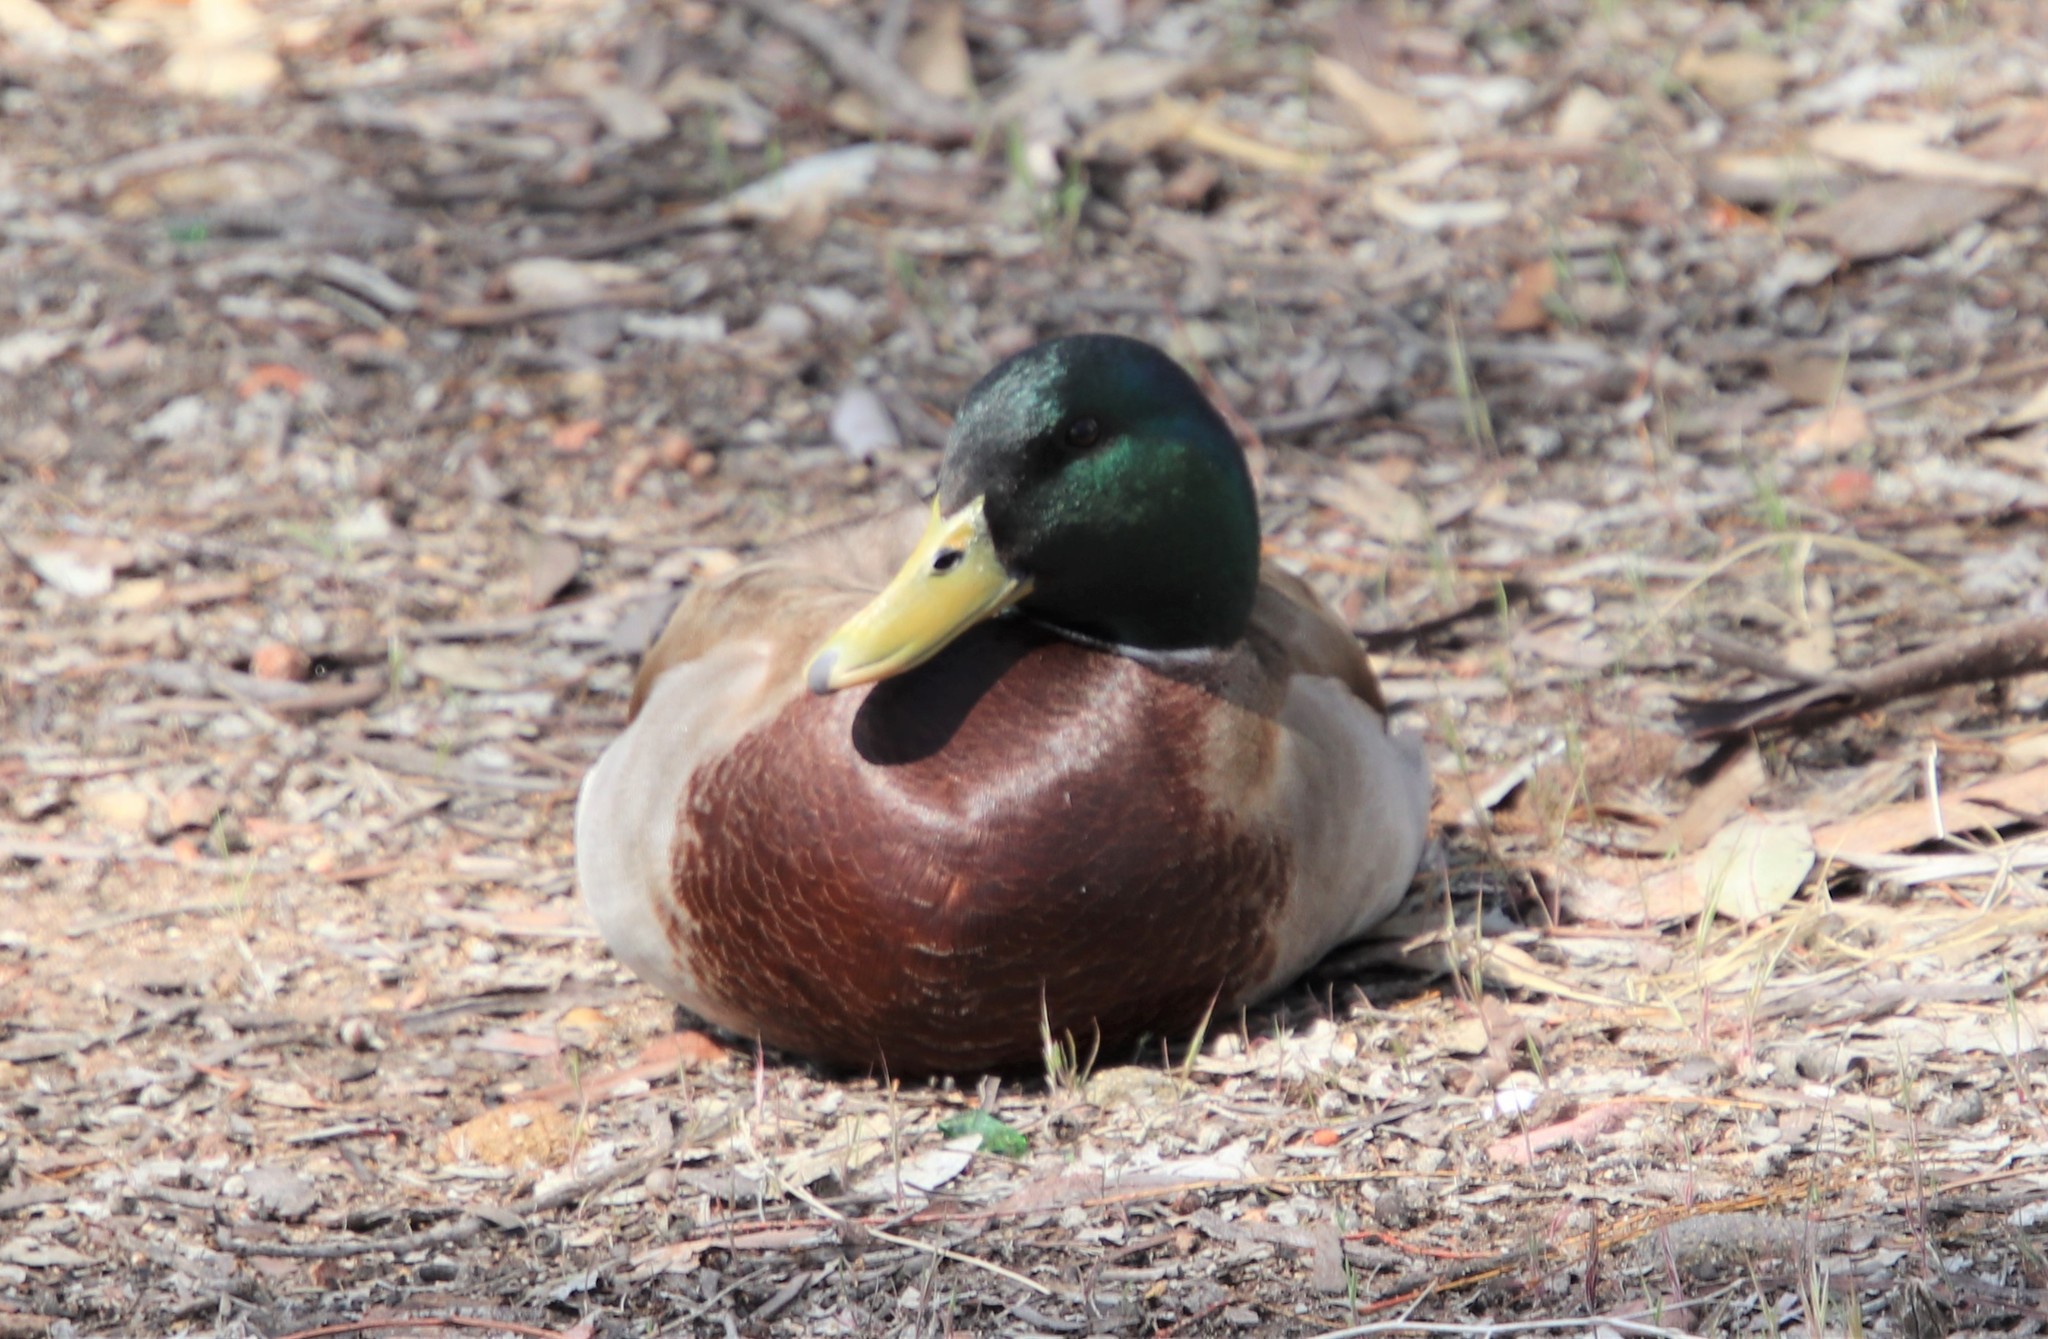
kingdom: Animalia
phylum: Chordata
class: Aves
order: Anseriformes
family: Anatidae
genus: Anas
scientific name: Anas platyrhynchos
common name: Mallard
